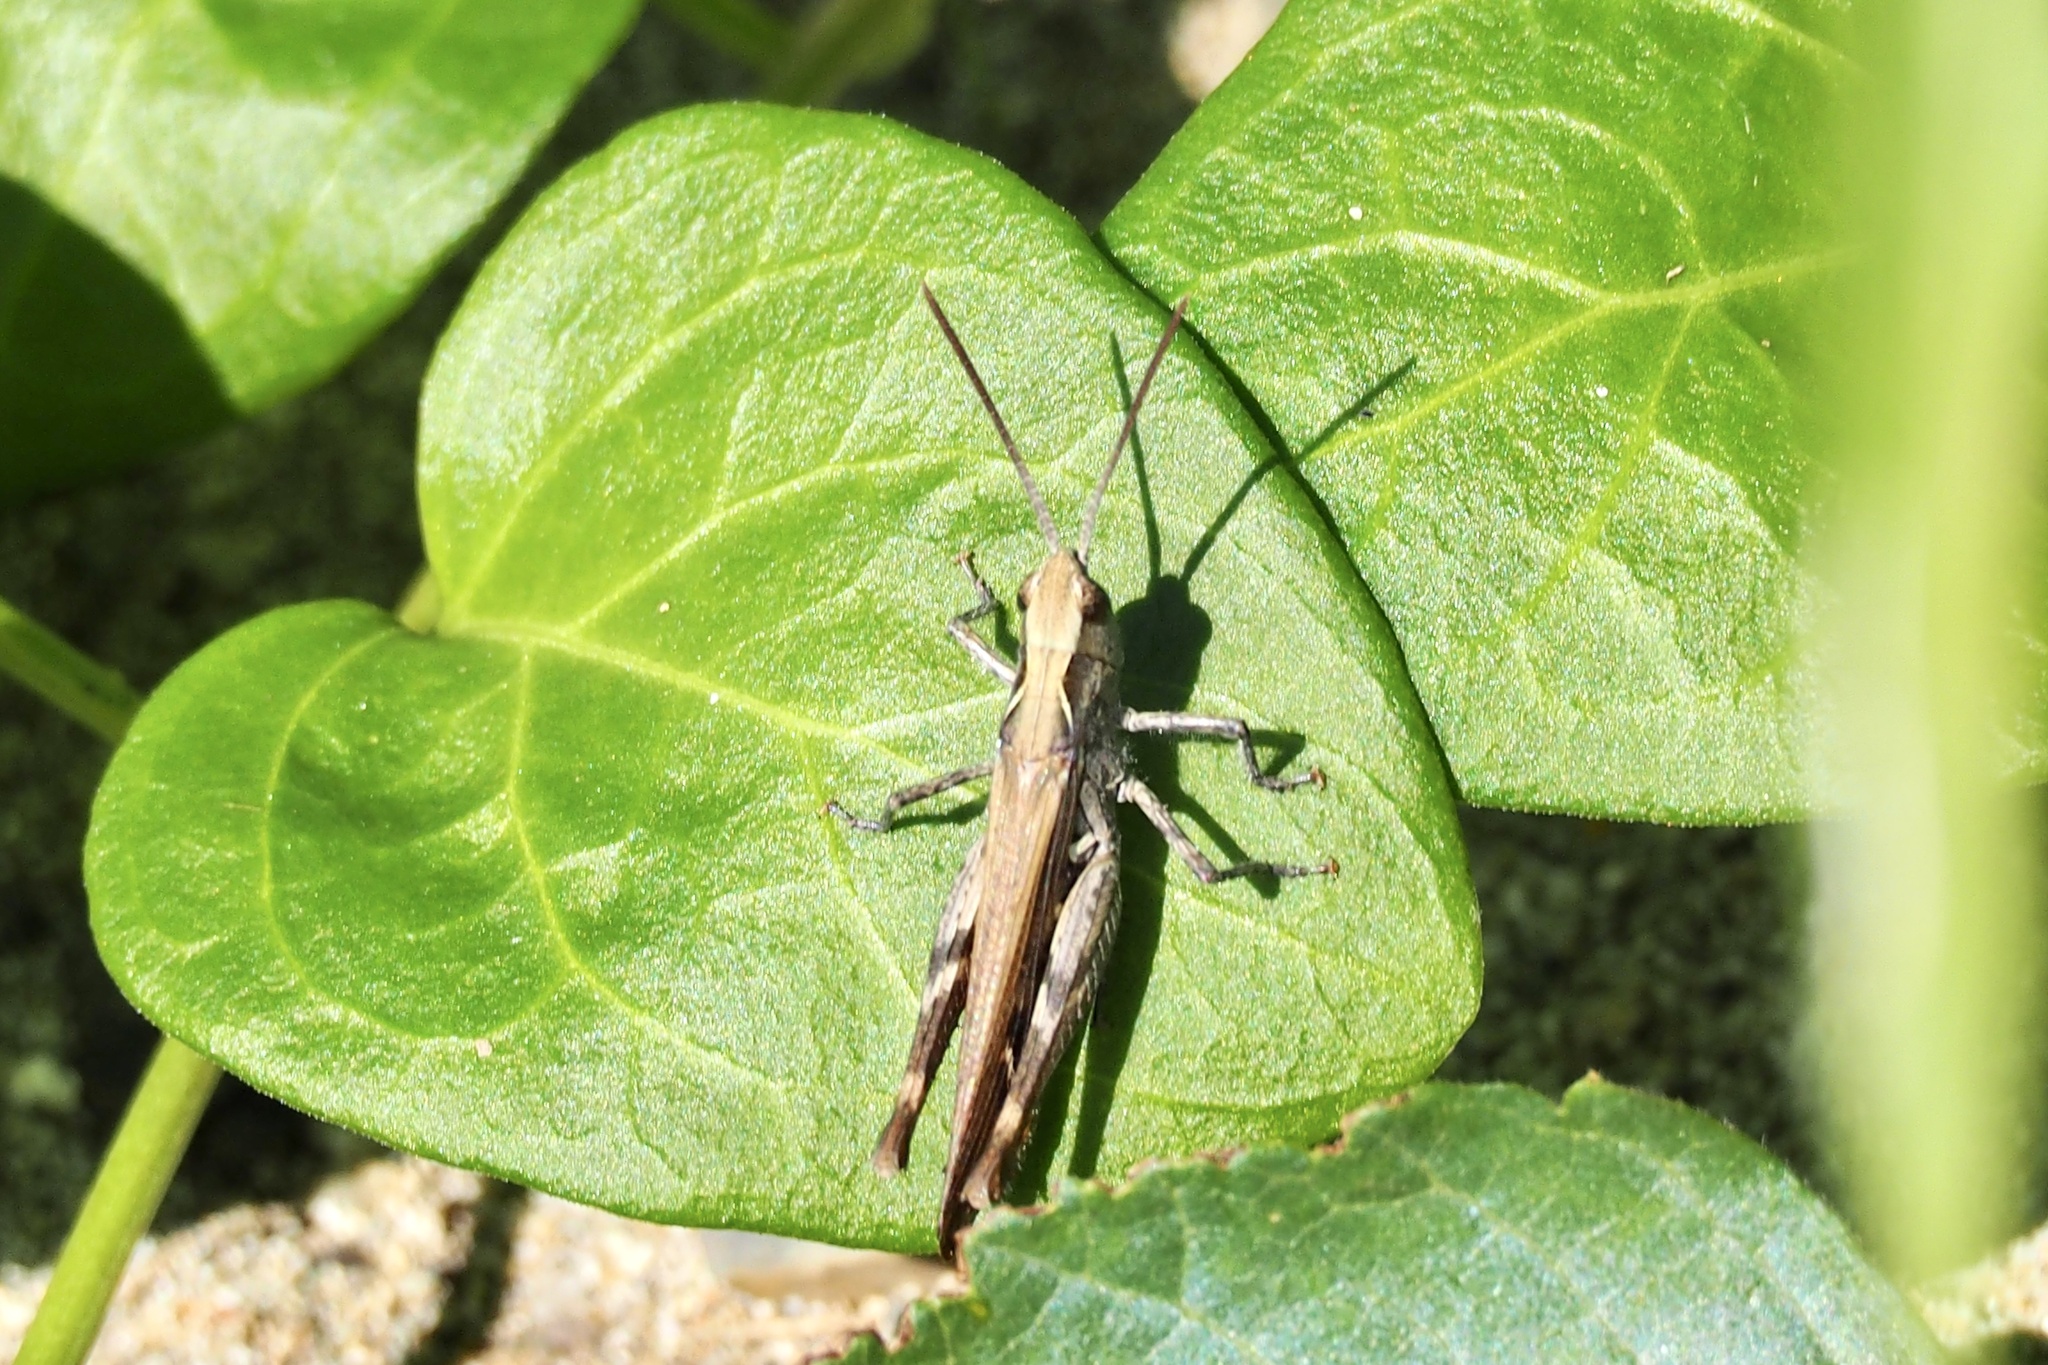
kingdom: Animalia
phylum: Arthropoda
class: Insecta
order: Orthoptera
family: Acrididae
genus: Chorthippus
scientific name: Chorthippus maritimus
